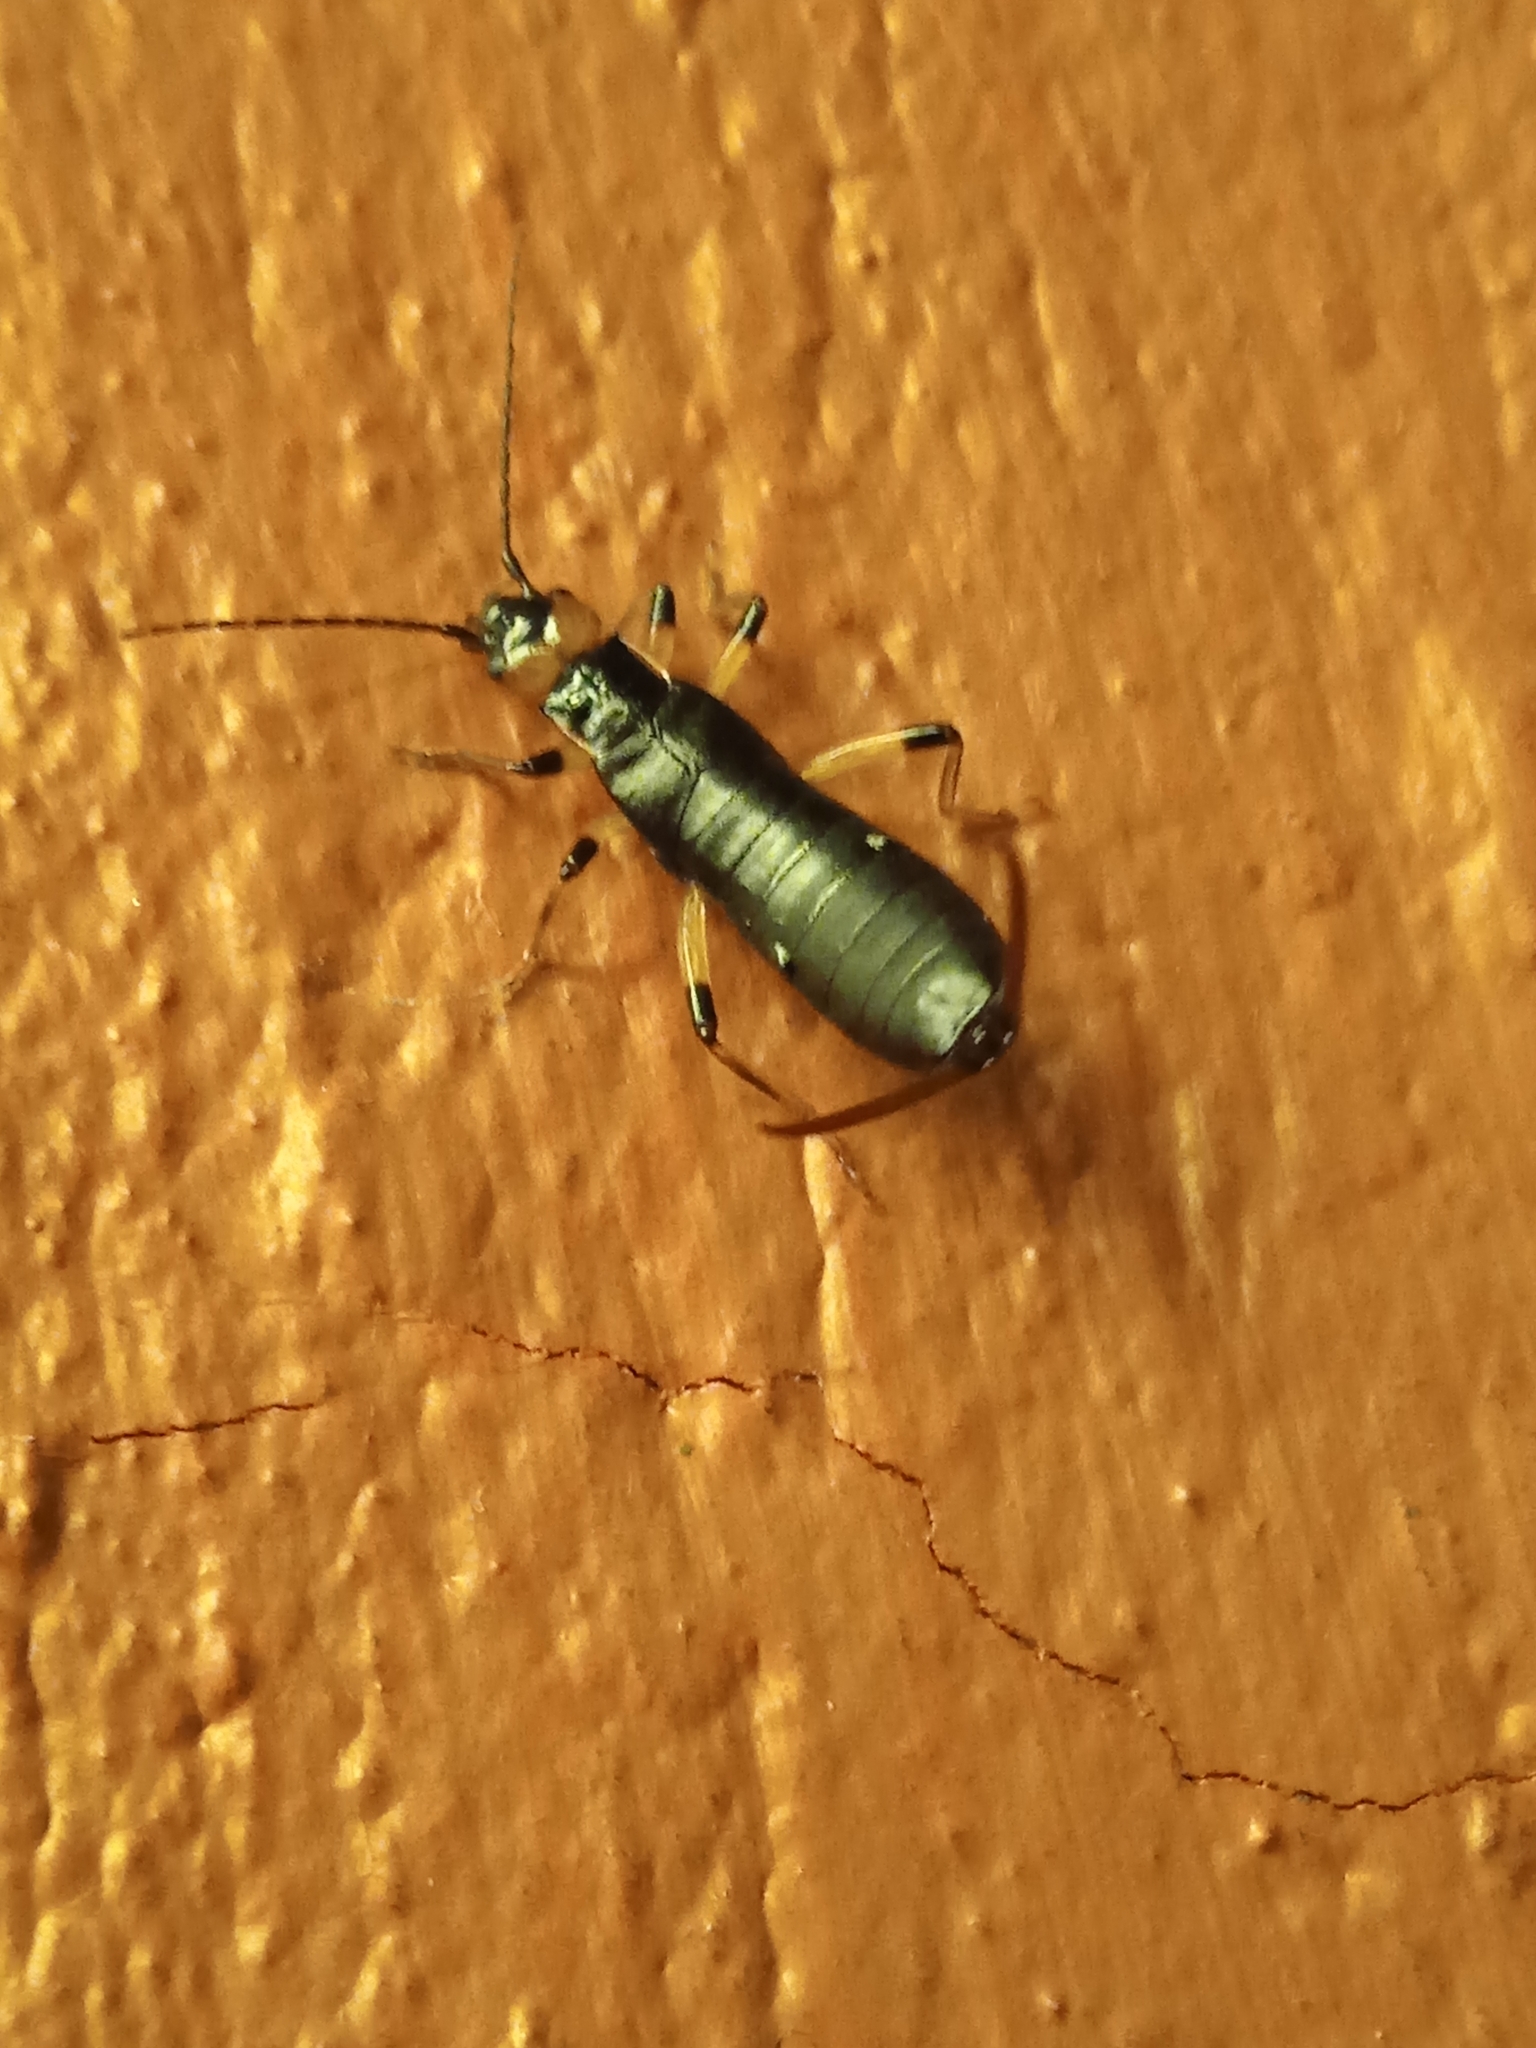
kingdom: Animalia
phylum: Arthropoda
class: Insecta
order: Dermaptera
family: Forficulidae
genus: Metresura
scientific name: Metresura ruficeps
